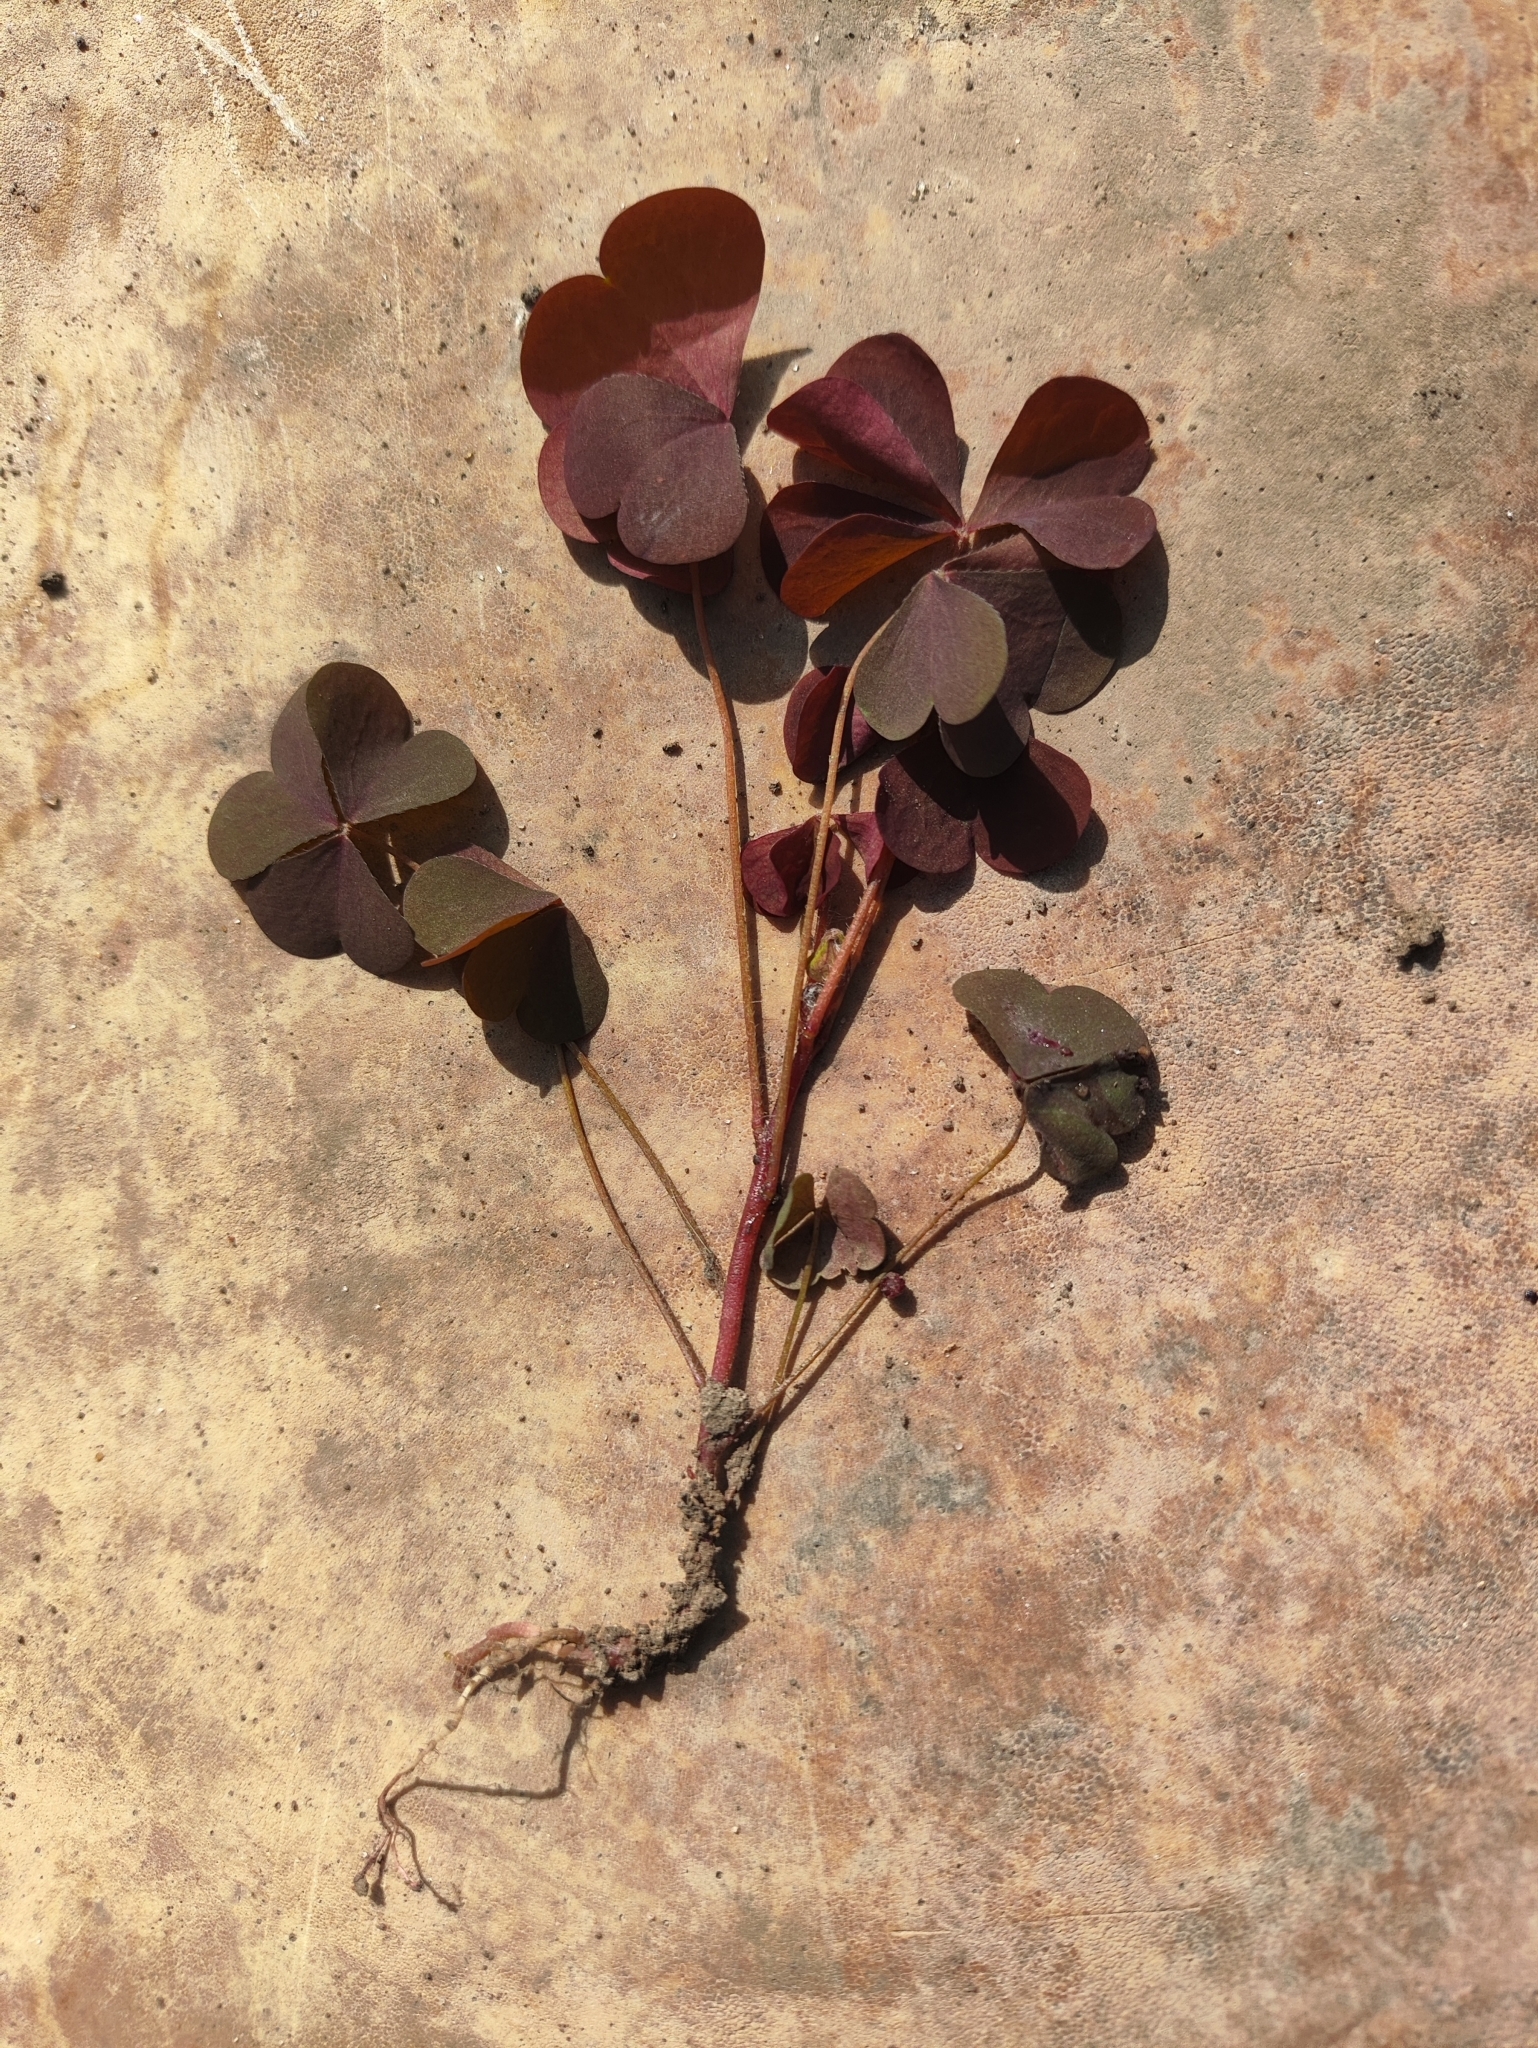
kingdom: Plantae
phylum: Tracheophyta
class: Magnoliopsida
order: Oxalidales
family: Oxalidaceae
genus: Oxalis
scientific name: Oxalis stricta
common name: Upright yellow-sorrel
